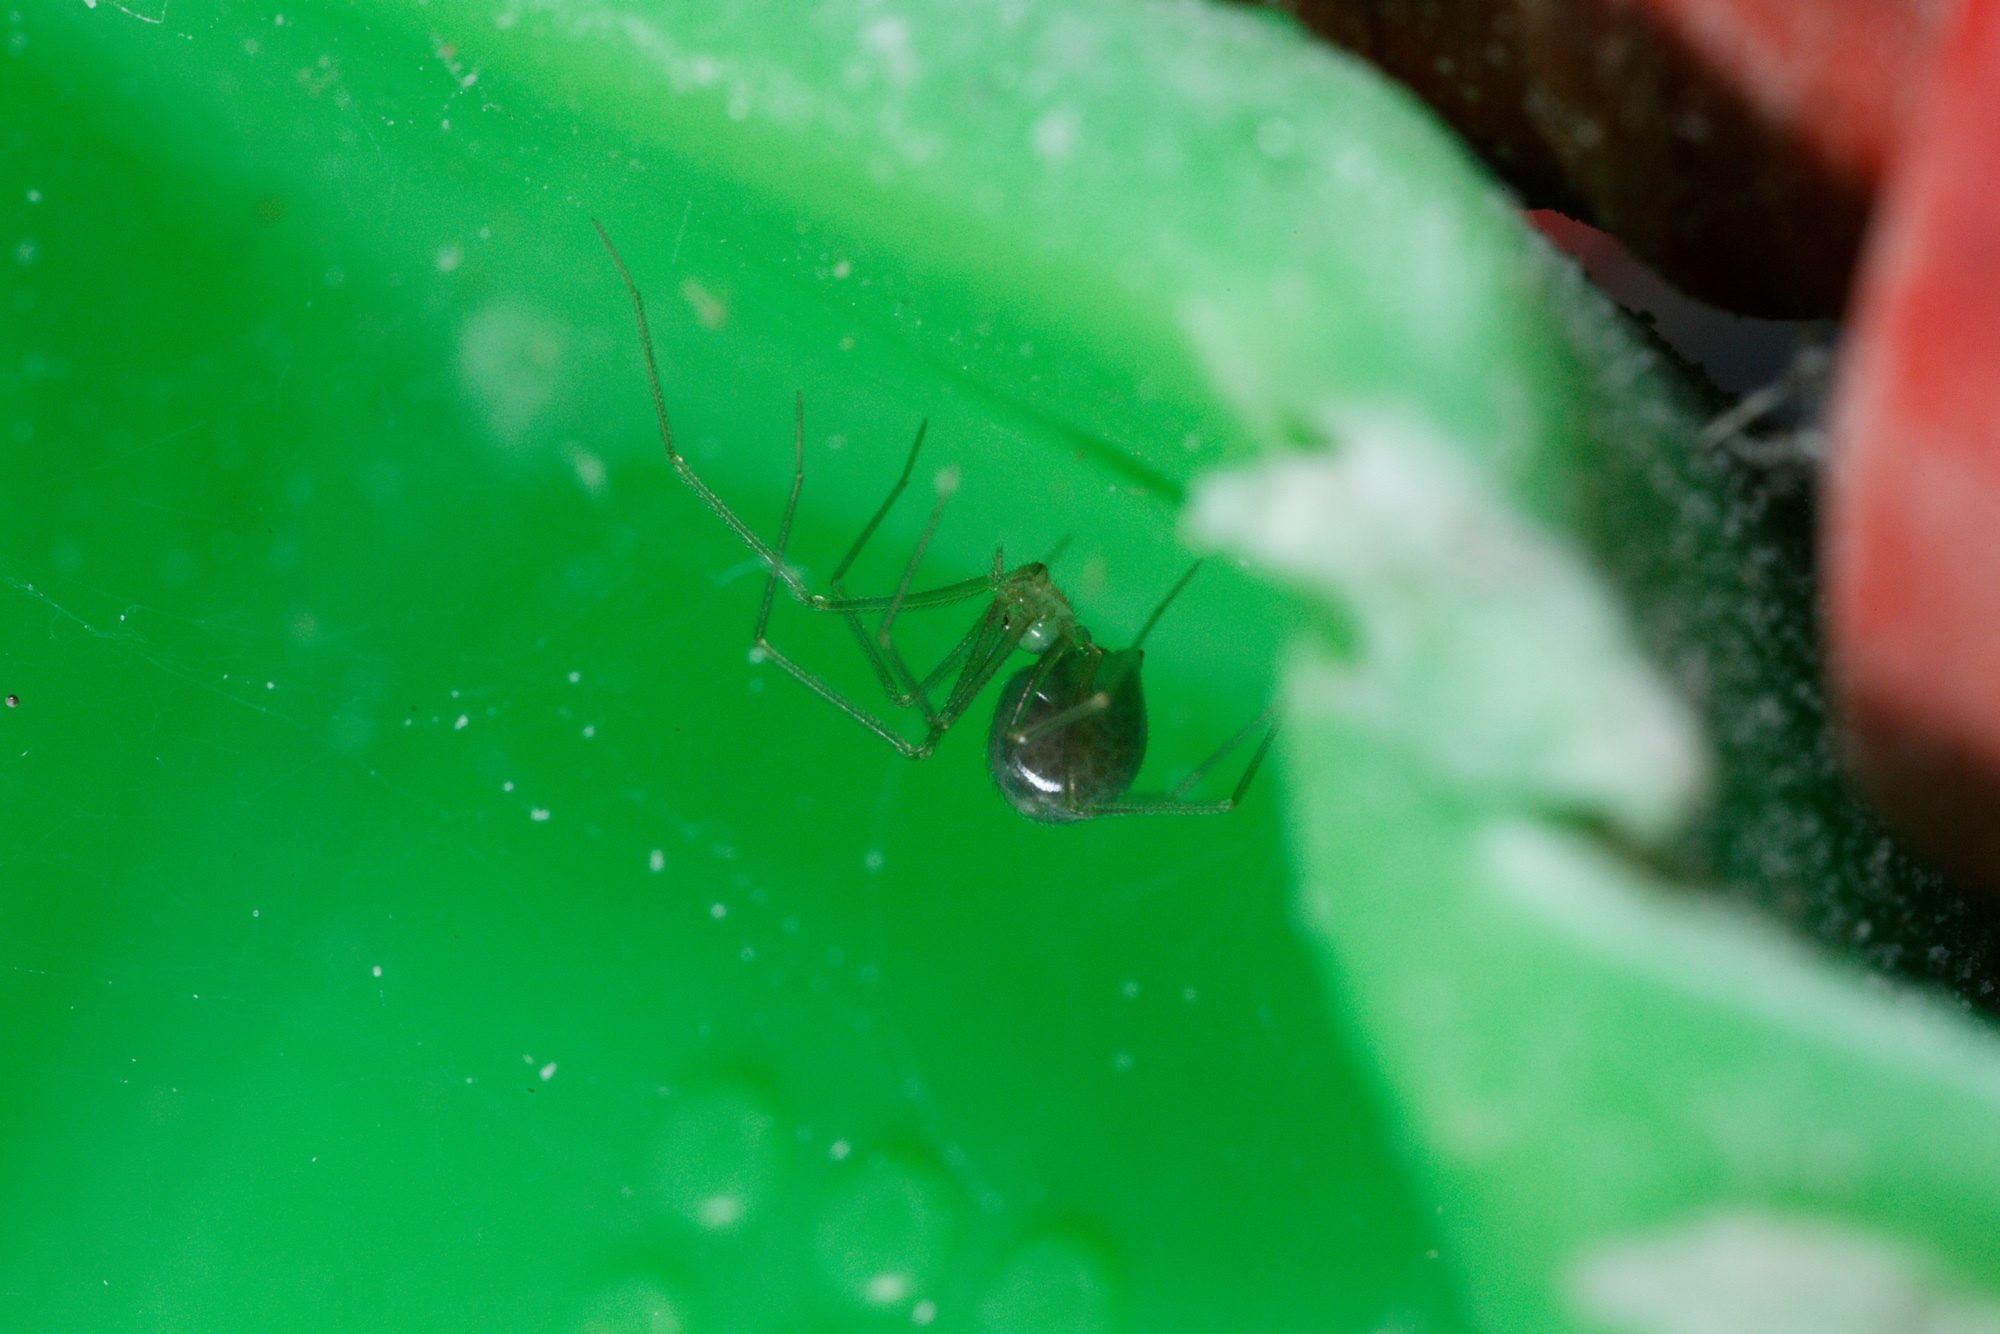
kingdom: Animalia
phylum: Arthropoda
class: Arachnida
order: Araneae
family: Pholcidae
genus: Psilochorus
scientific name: Psilochorus simoni
